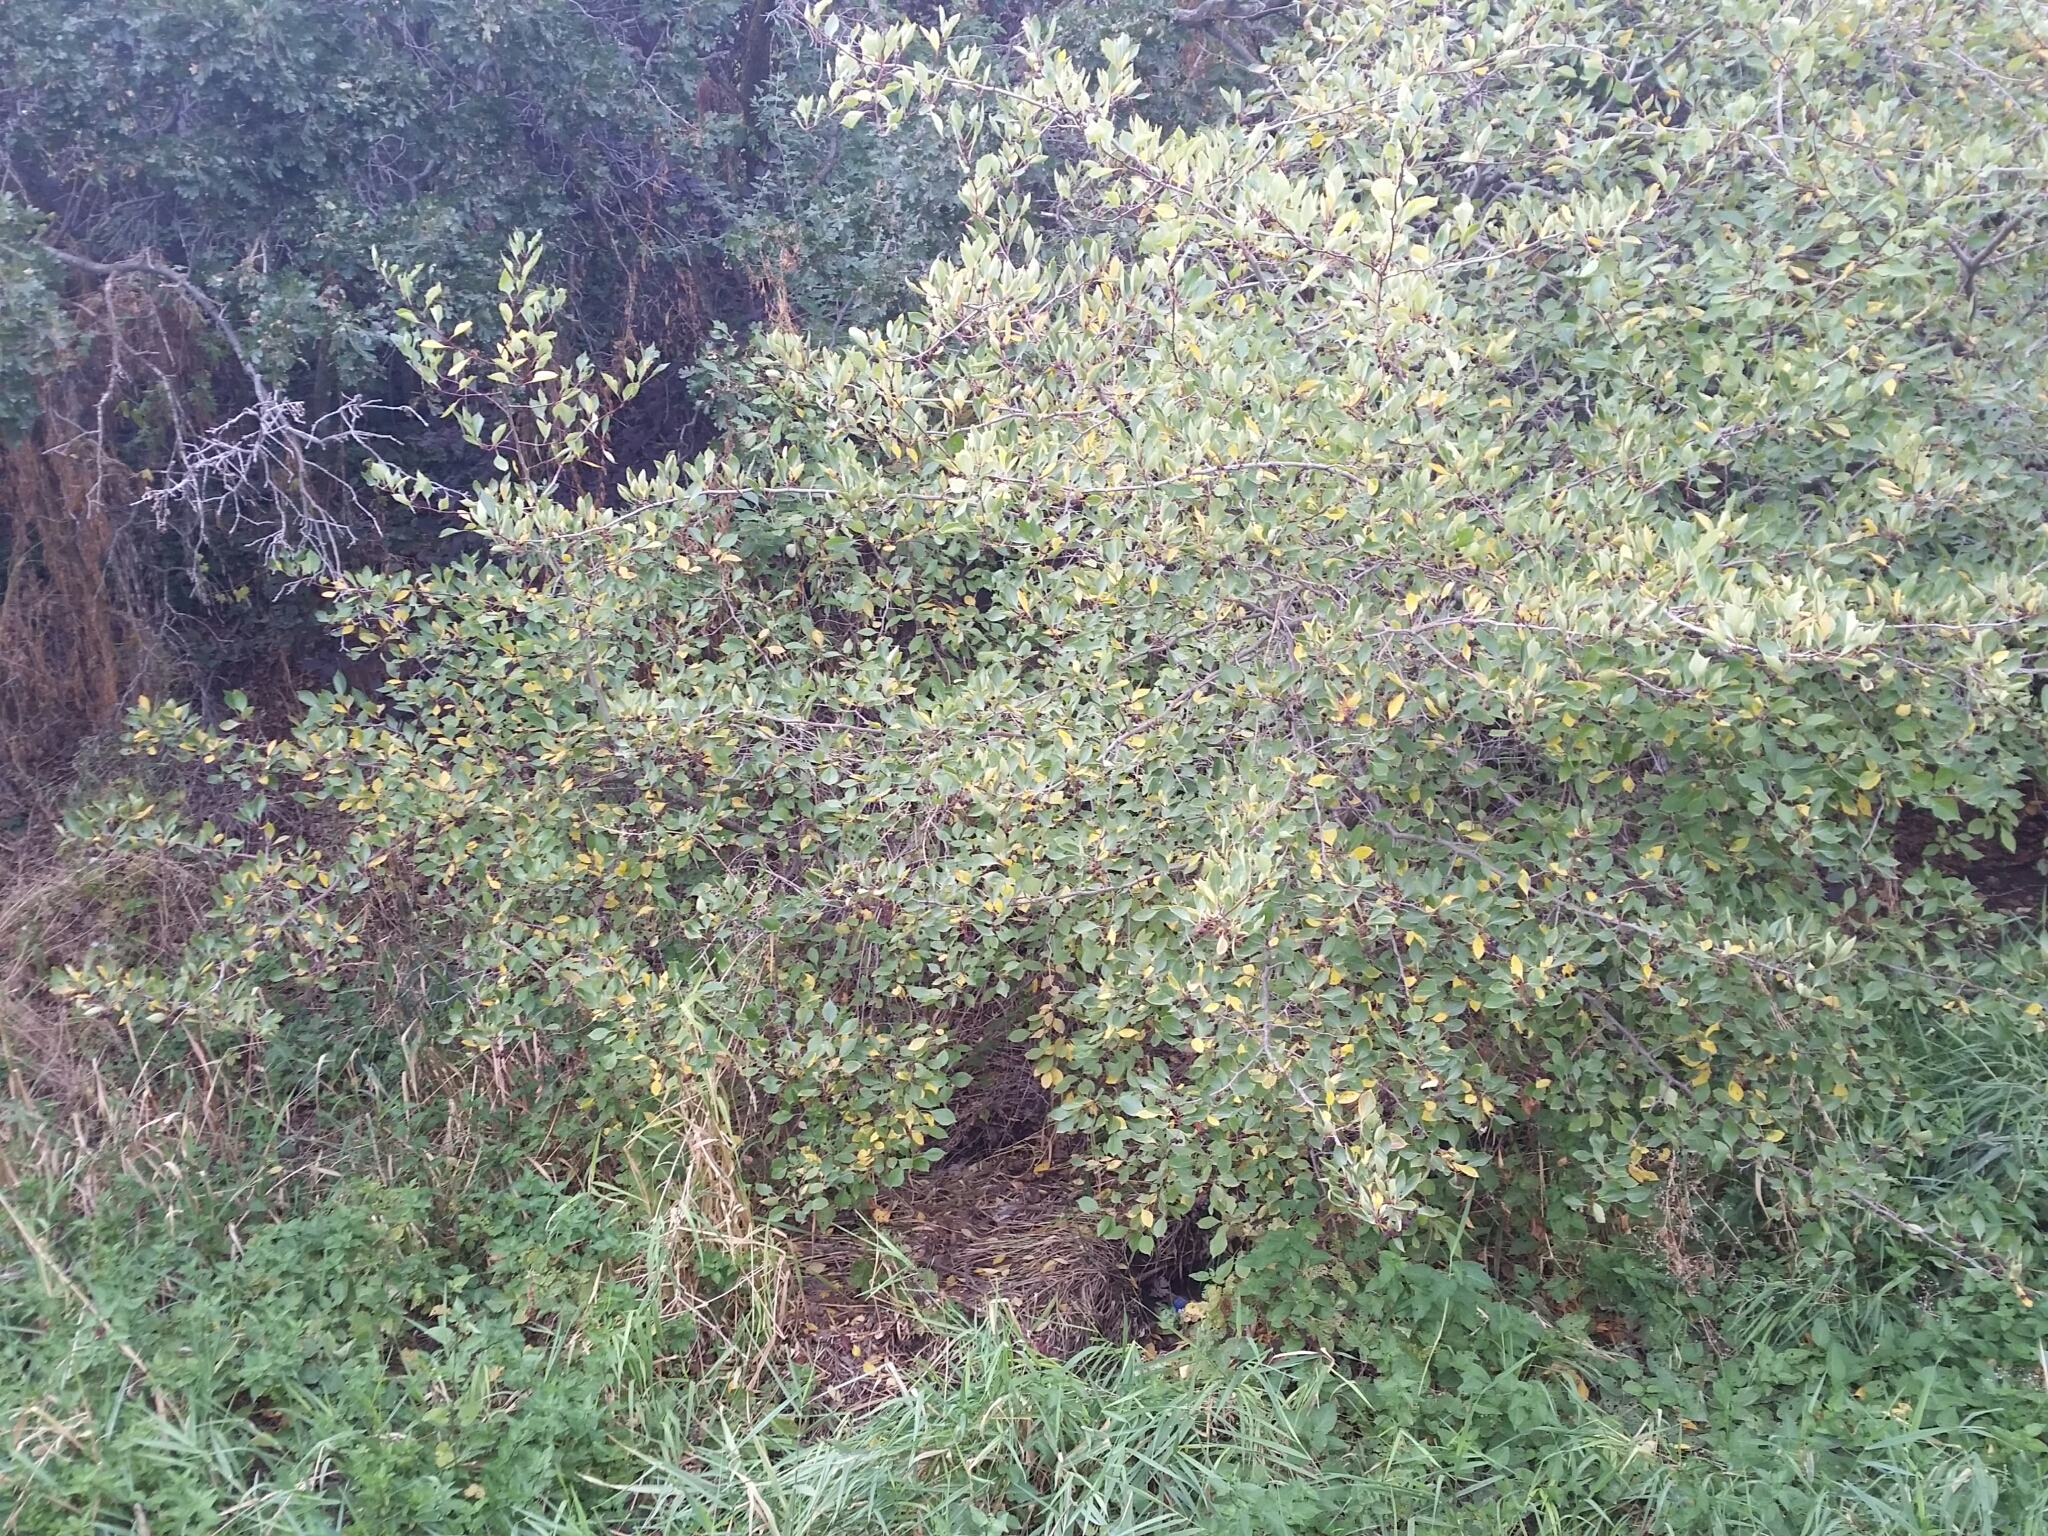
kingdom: Plantae
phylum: Tracheophyta
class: Magnoliopsida
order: Rosales
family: Rosaceae
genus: Crataegus
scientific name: Crataegus rivularis
